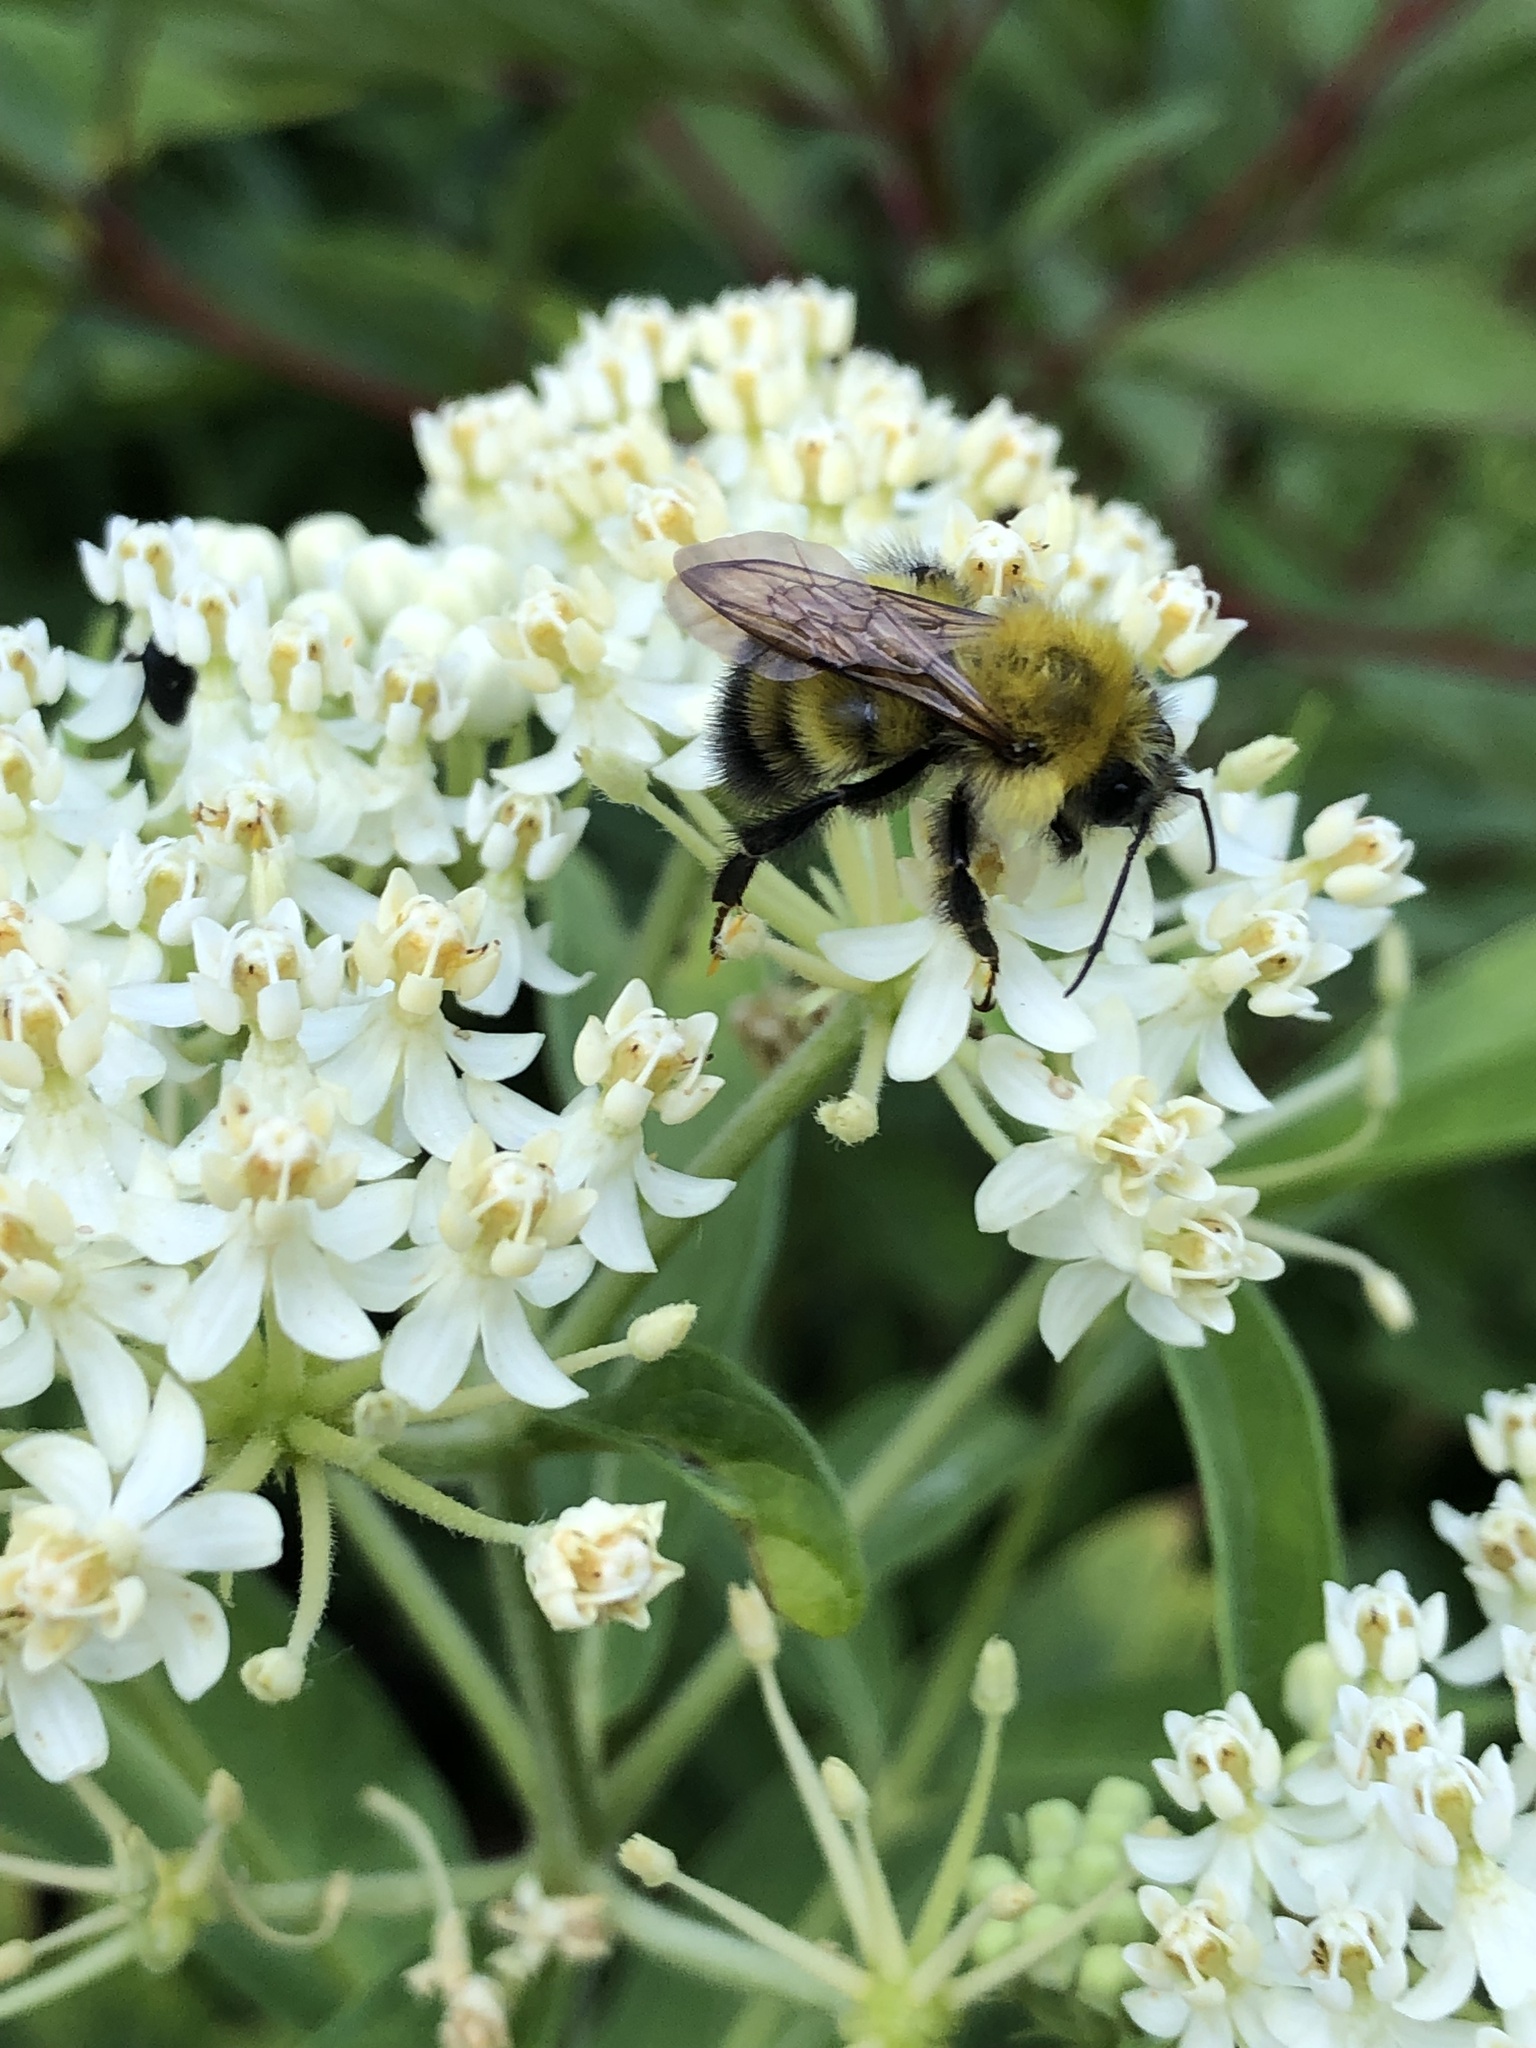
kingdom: Animalia
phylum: Arthropoda
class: Insecta
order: Hymenoptera
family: Apidae
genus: Bombus
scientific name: Bombus perplexus
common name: Confusing bumble bee
